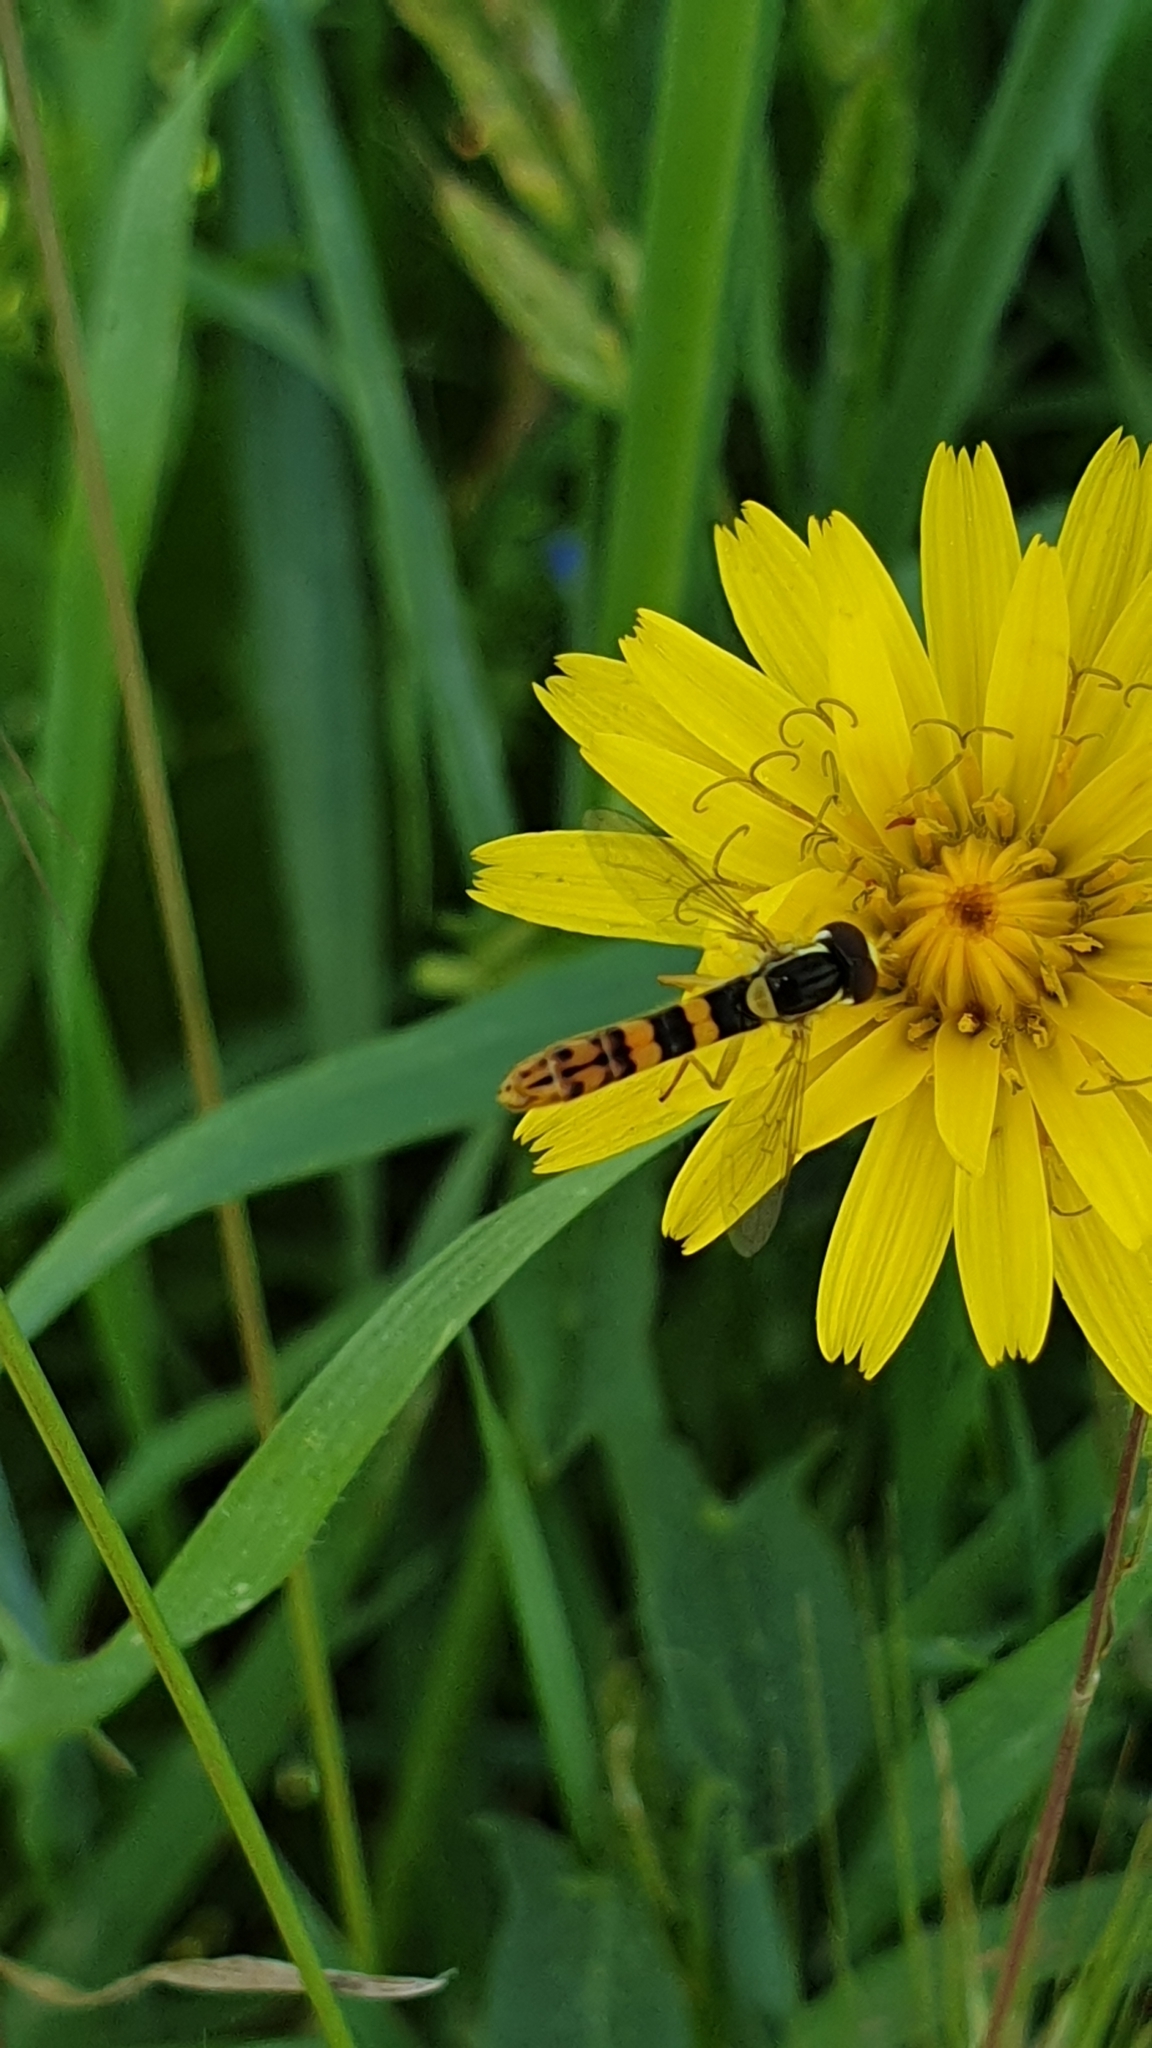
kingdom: Animalia
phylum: Arthropoda
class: Insecta
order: Diptera
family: Syrphidae
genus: Sphaerophoria
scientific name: Sphaerophoria scripta
